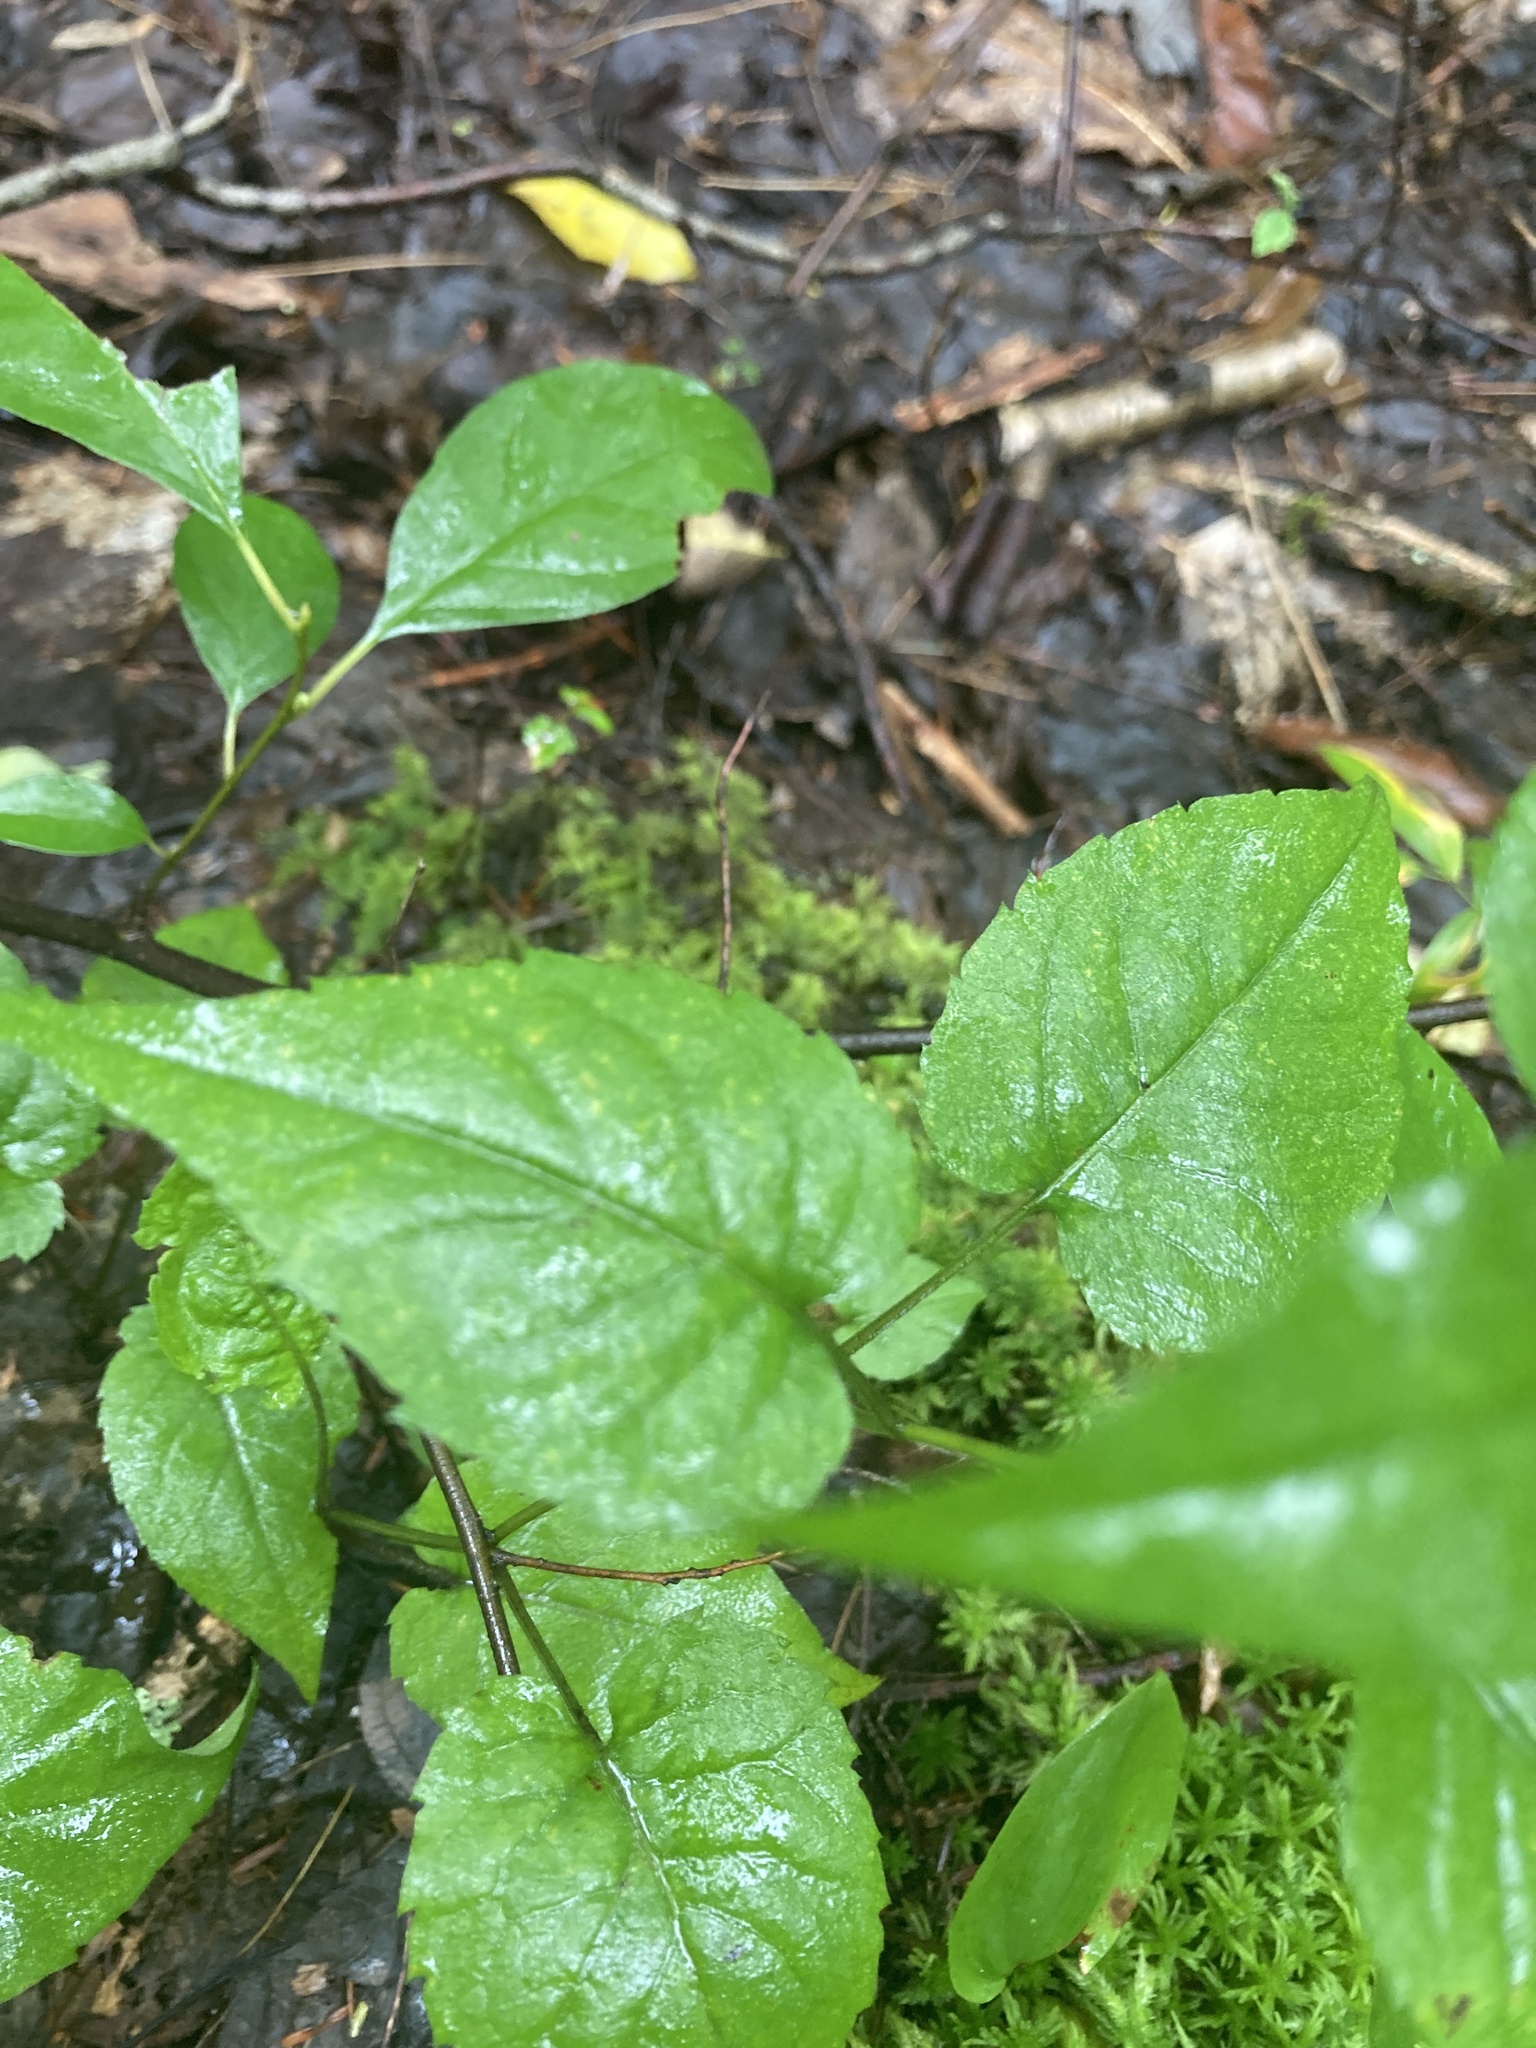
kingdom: Plantae
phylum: Tracheophyta
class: Magnoliopsida
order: Asterales
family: Asteraceae
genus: Eurybia
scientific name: Eurybia divaricata
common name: White wood aster
